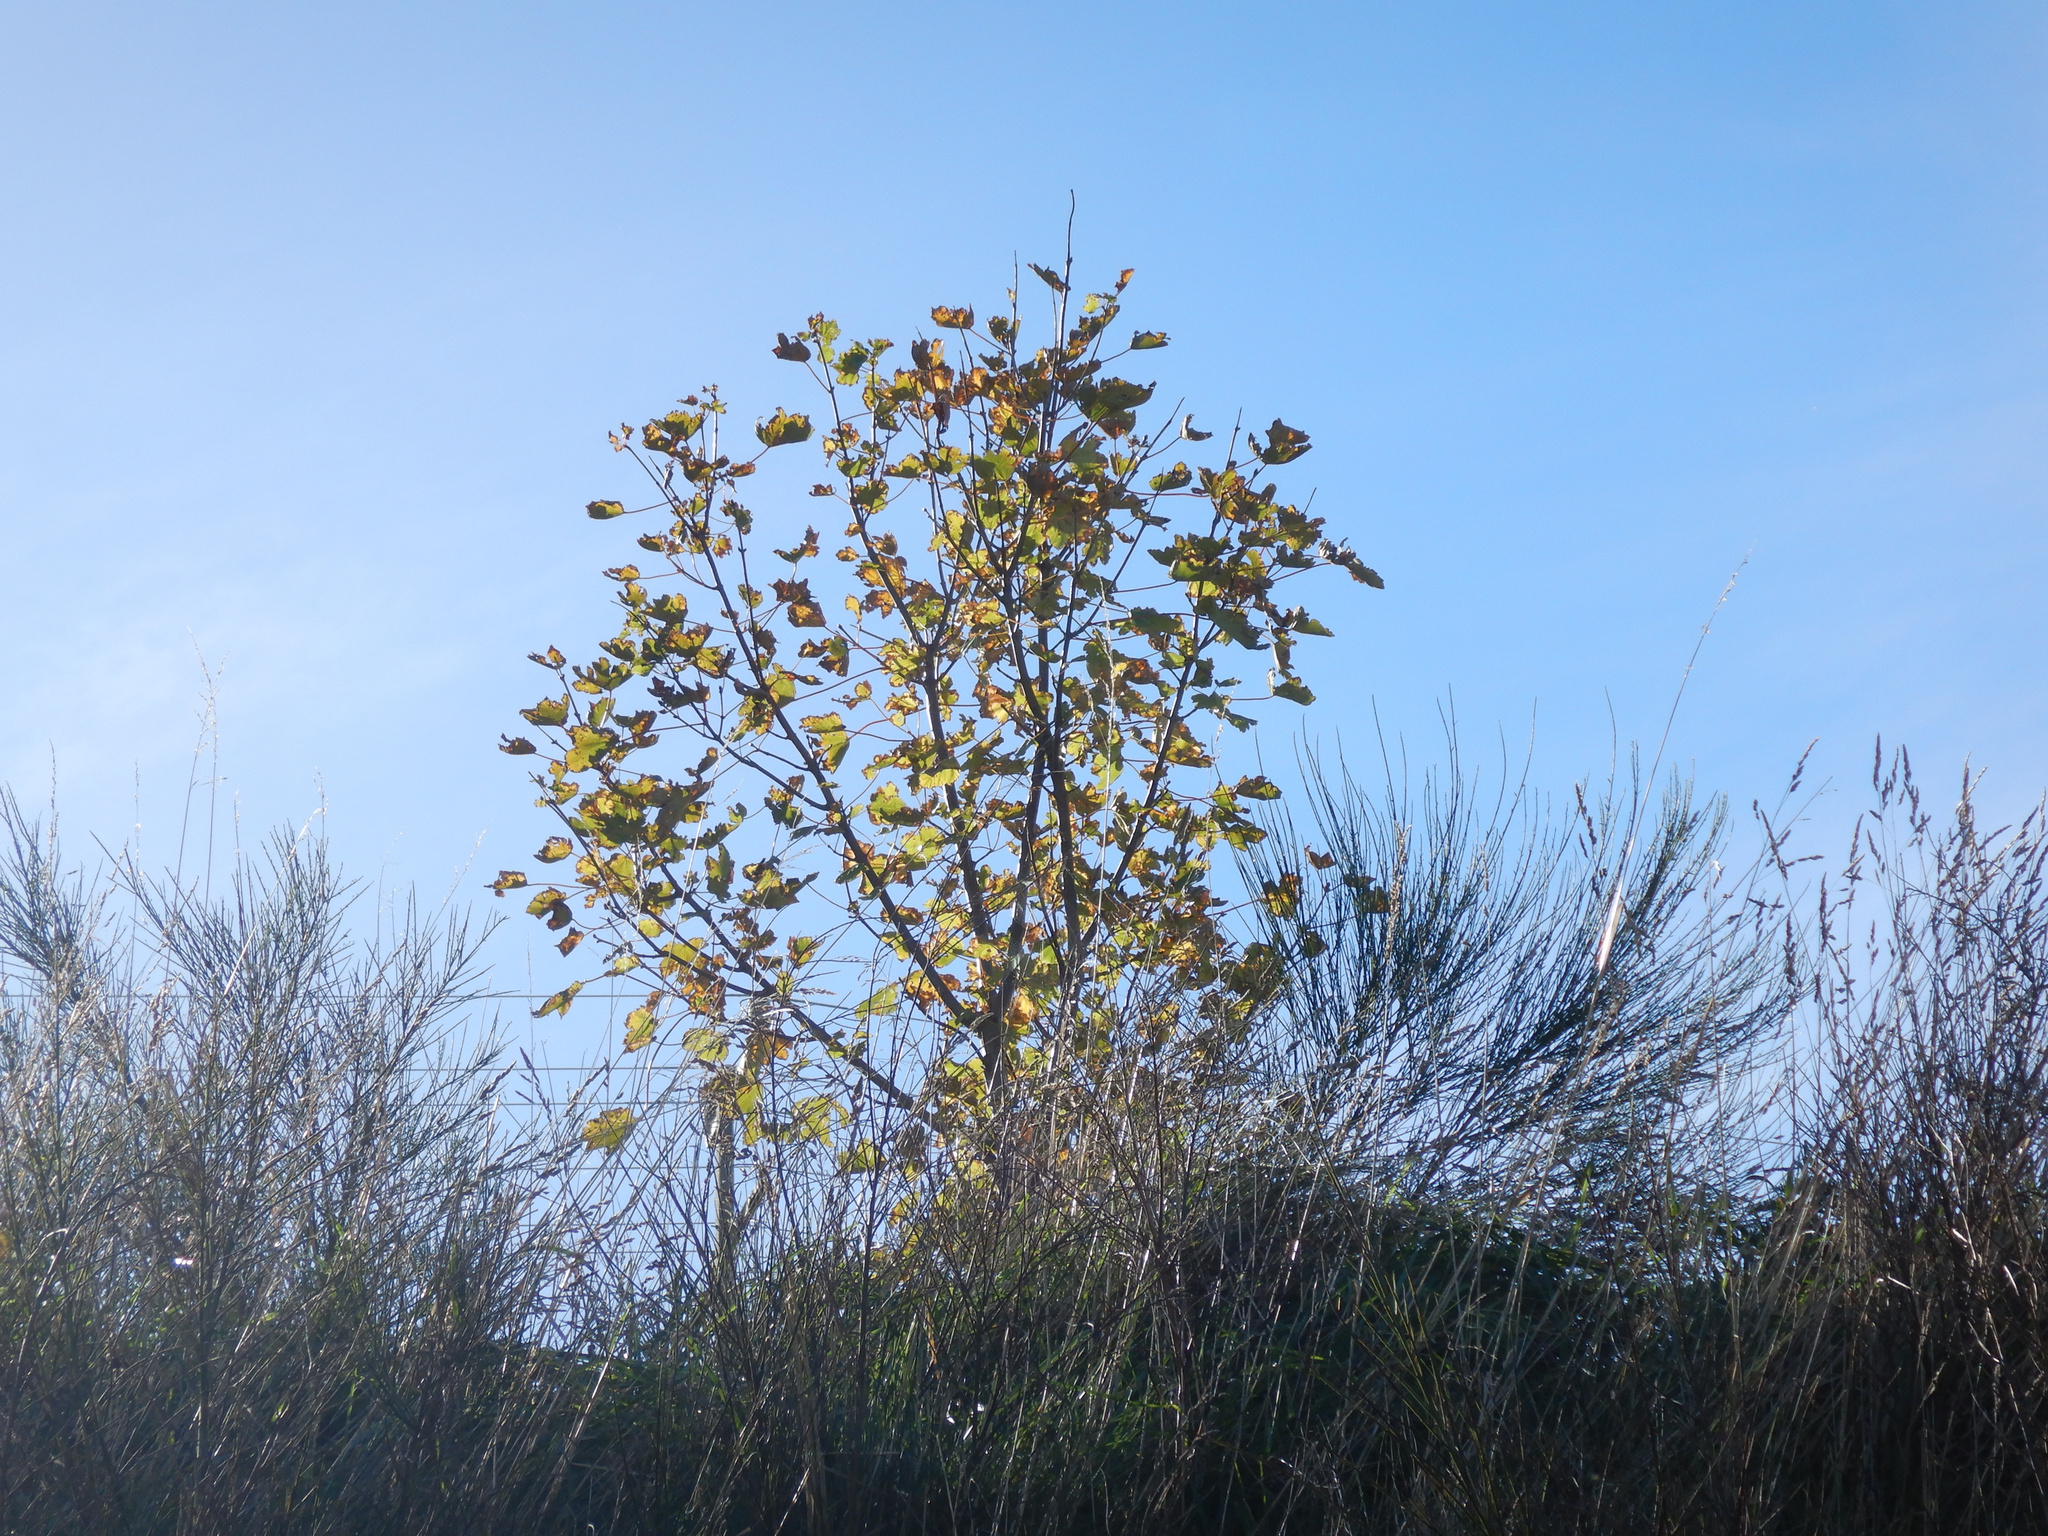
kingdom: Plantae
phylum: Tracheophyta
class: Magnoliopsida
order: Sapindales
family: Sapindaceae
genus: Acer
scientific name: Acer pseudoplatanus
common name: Sycamore
